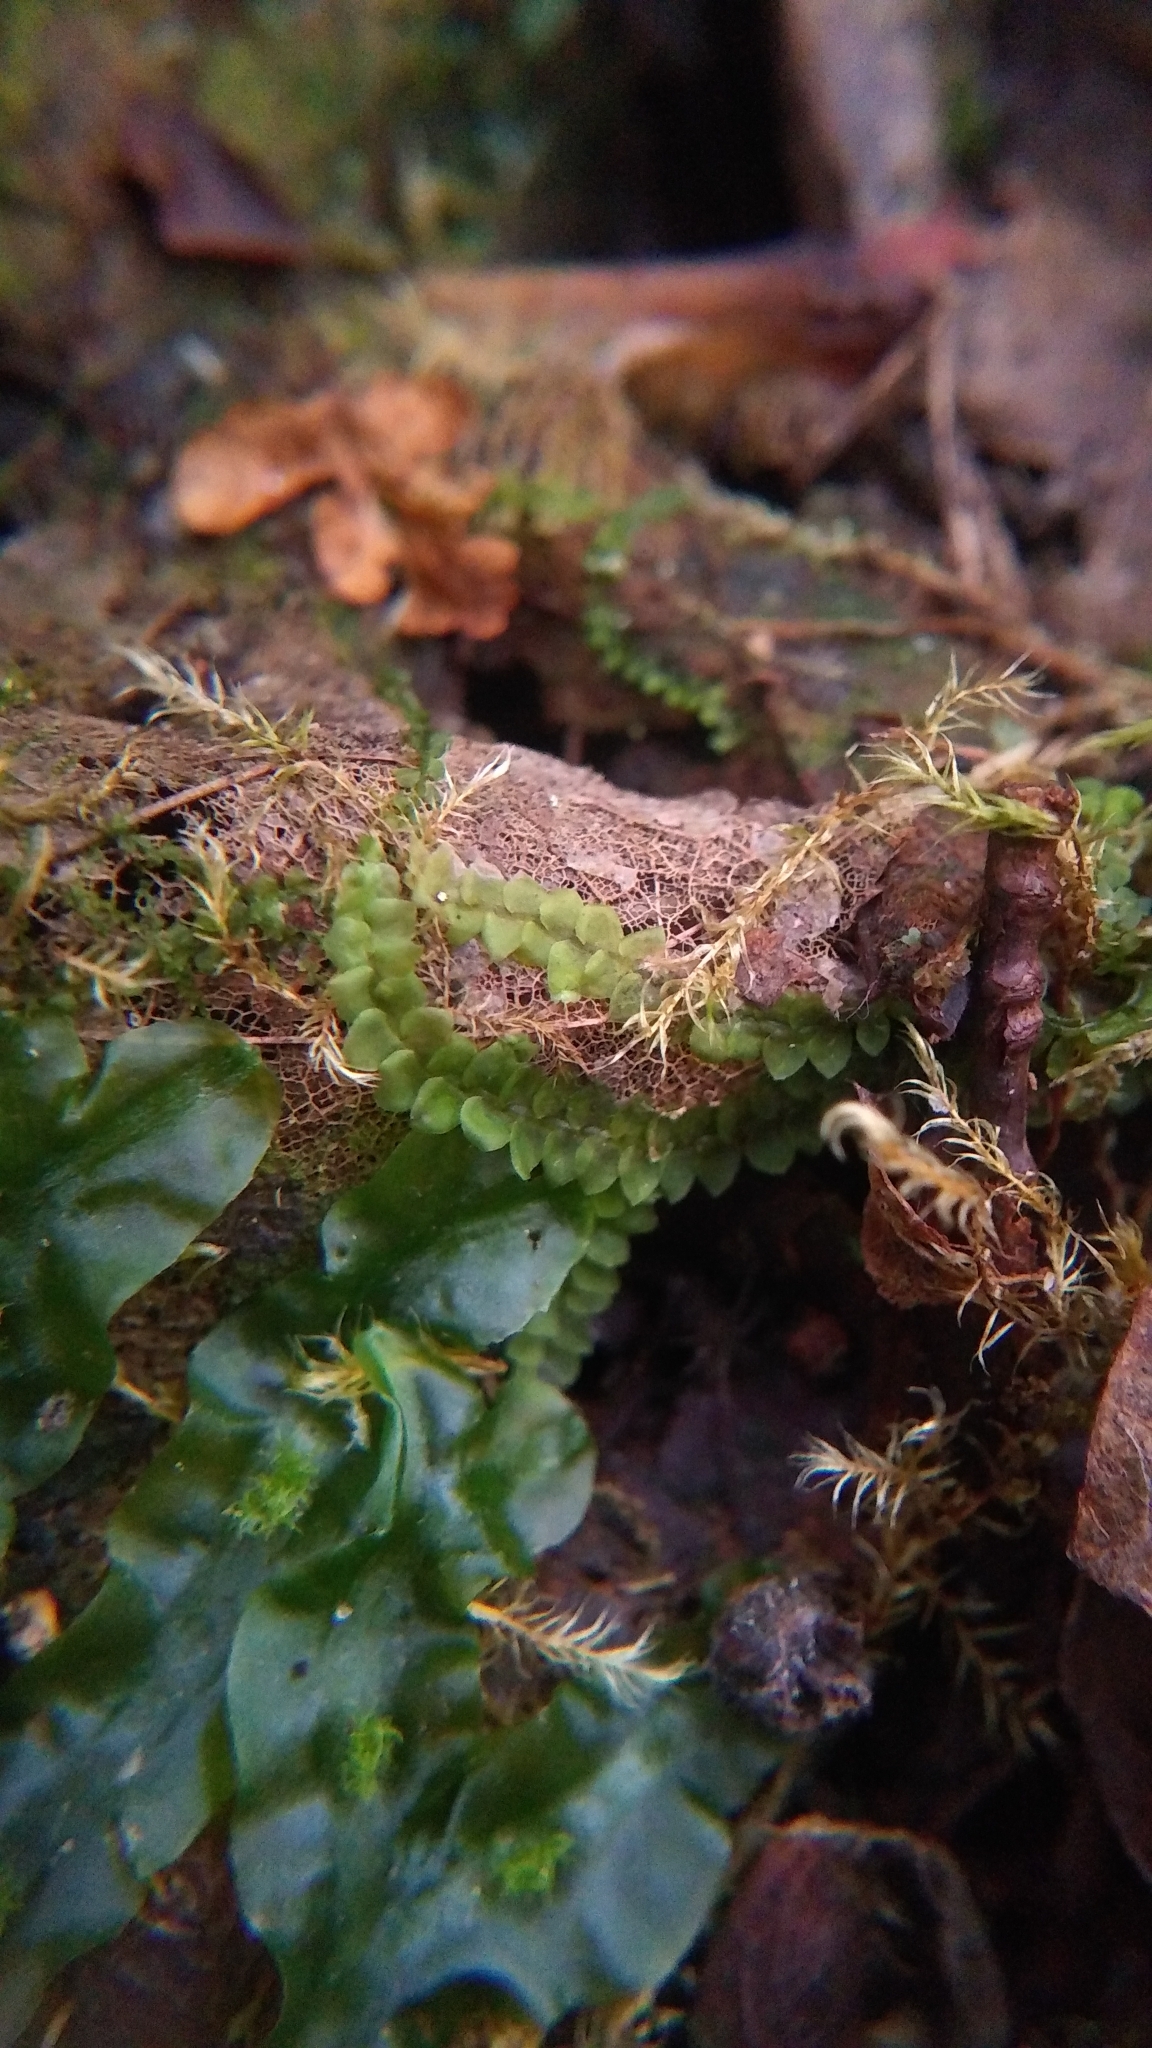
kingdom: Plantae
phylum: Marchantiophyta
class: Jungermanniopsida
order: Jungermanniales
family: Calypogeiaceae
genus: Calypogeia
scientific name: Calypogeia neogaea
